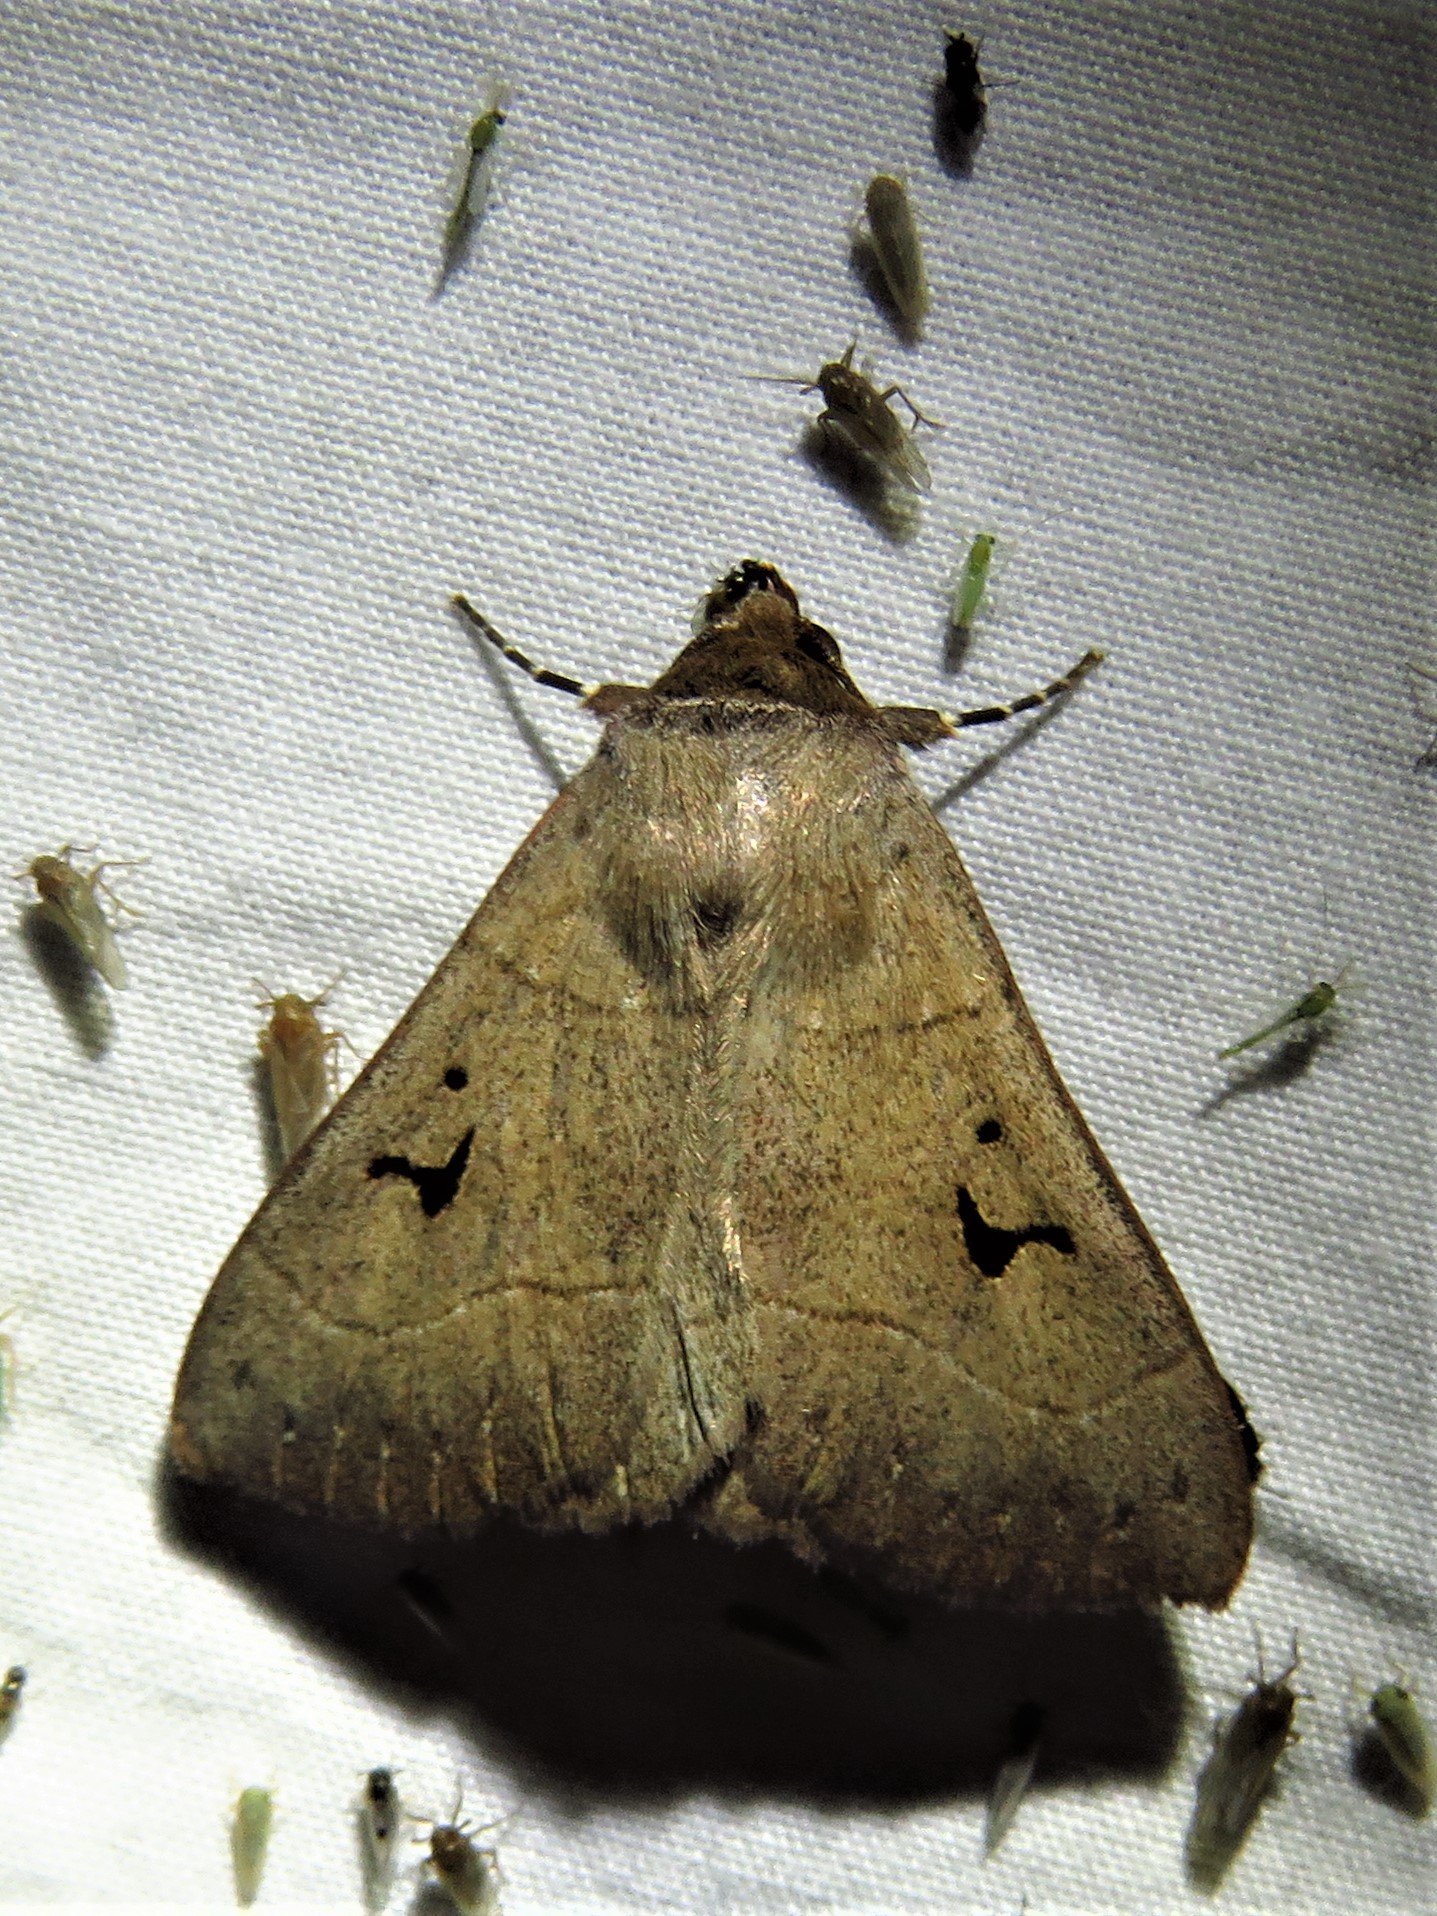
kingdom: Animalia
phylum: Arthropoda
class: Insecta
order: Lepidoptera
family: Erebidae
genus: Panopoda
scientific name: Panopoda carneicosta
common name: Brown panopoda moth
